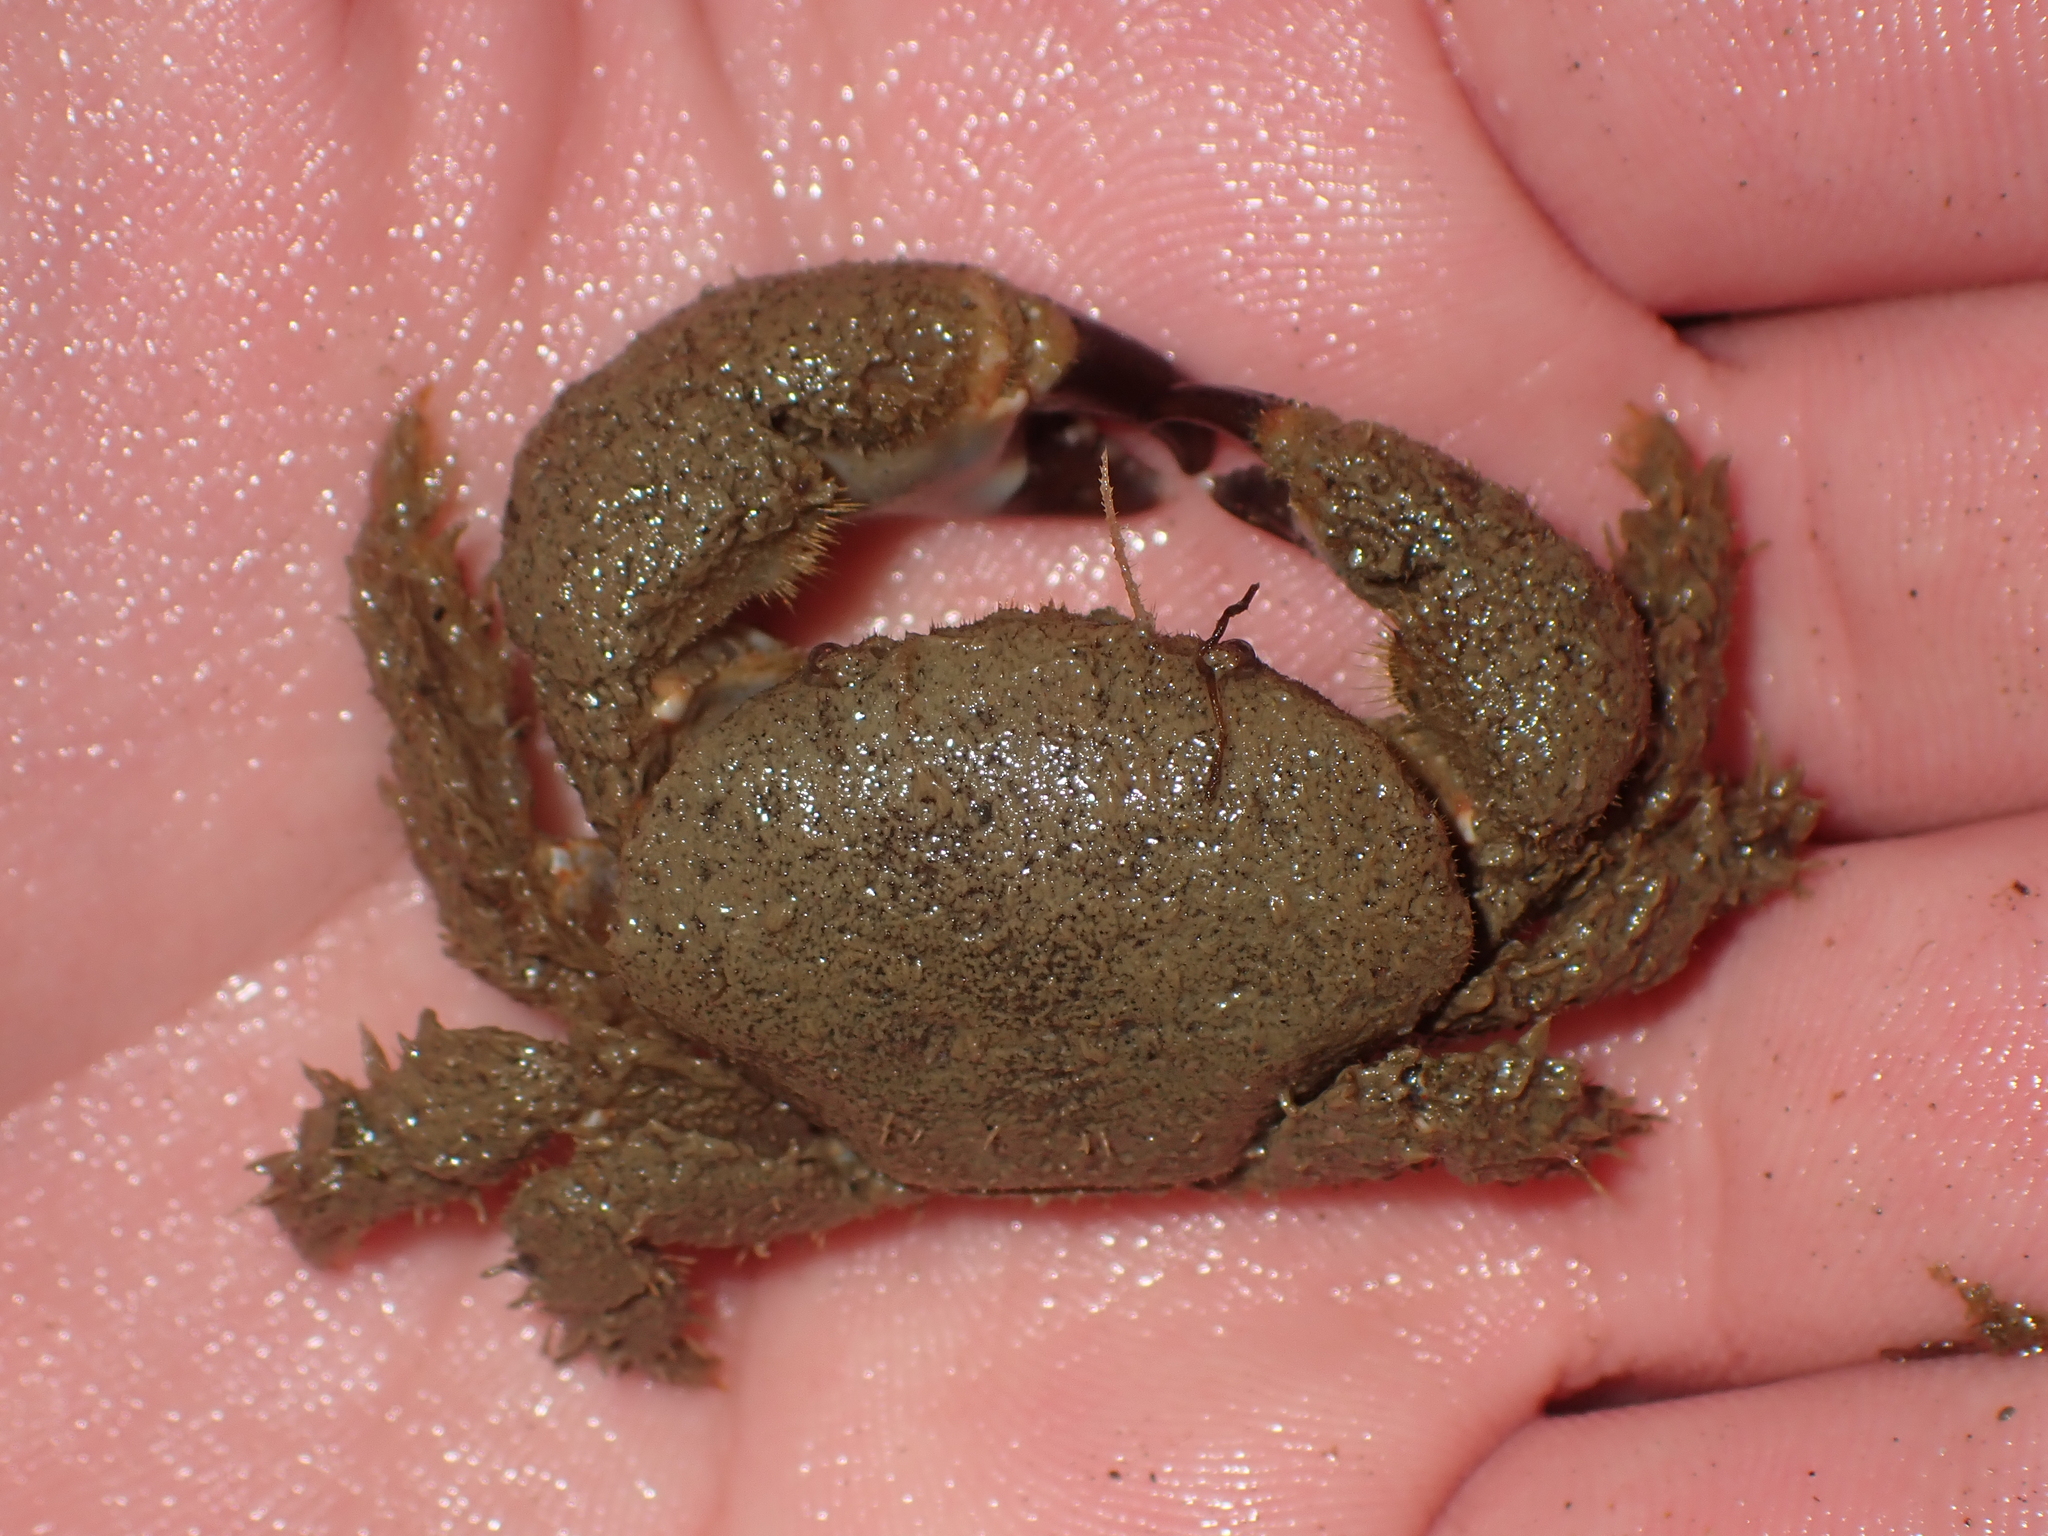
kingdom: Animalia
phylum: Arthropoda
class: Malacostraca
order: Decapoda
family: Pilumnidae
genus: Pilumnus
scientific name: Pilumnus lumpinus
